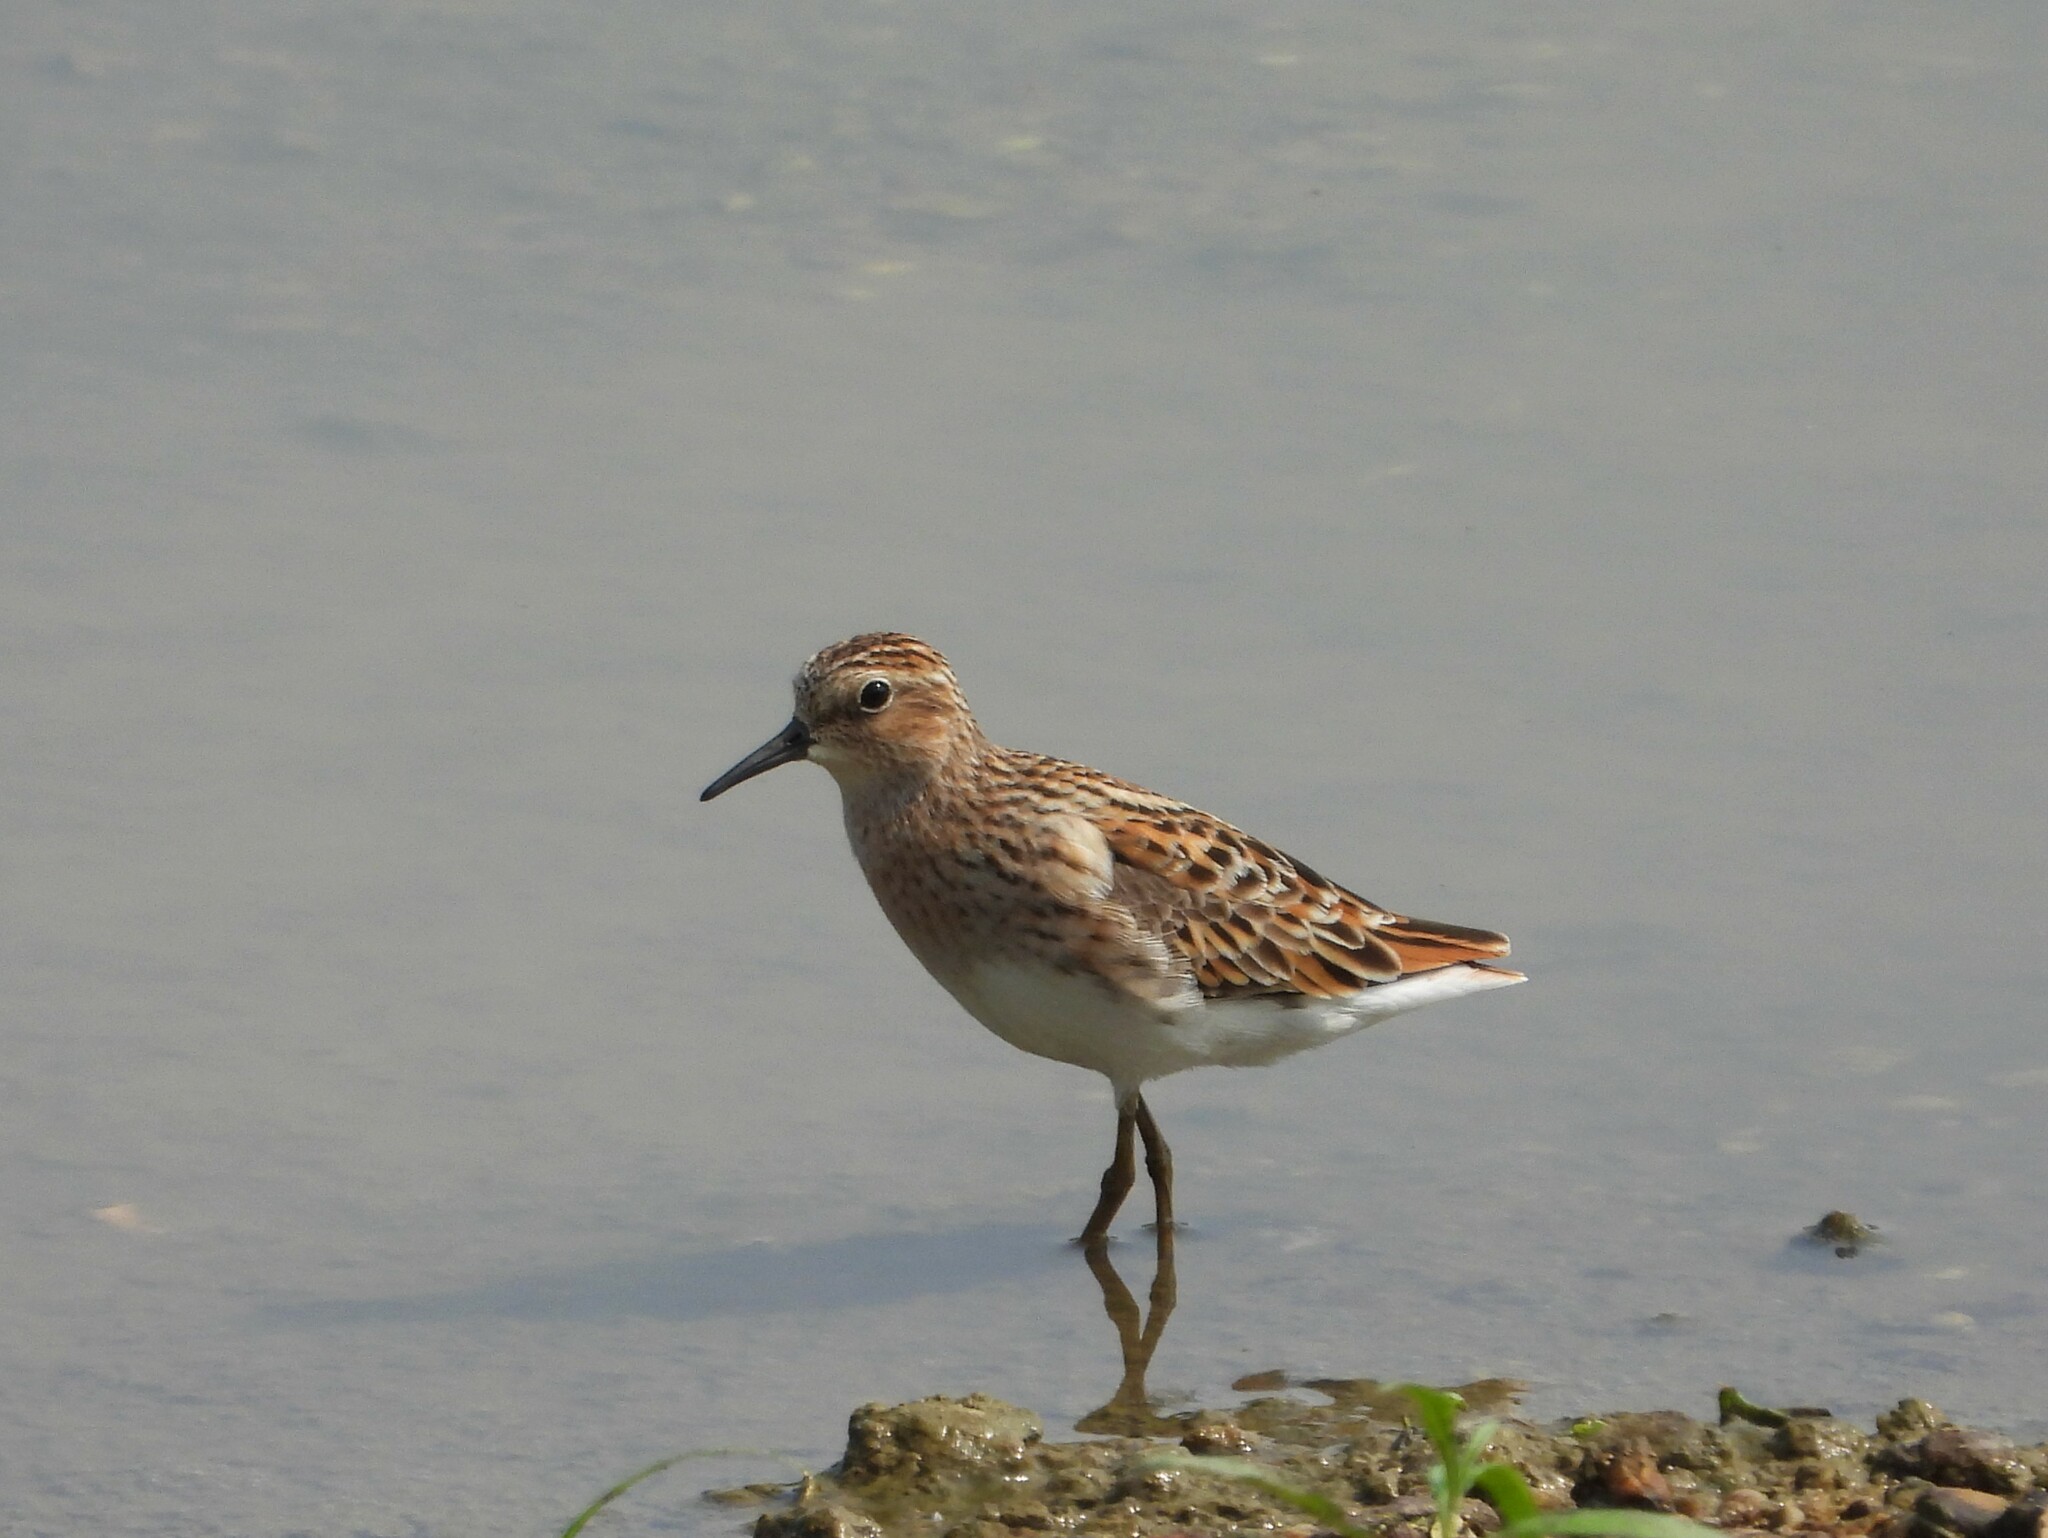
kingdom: Animalia
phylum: Chordata
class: Aves
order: Charadriiformes
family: Scolopacidae
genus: Calidris
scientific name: Calidris subminuta
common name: Long-toed stint
